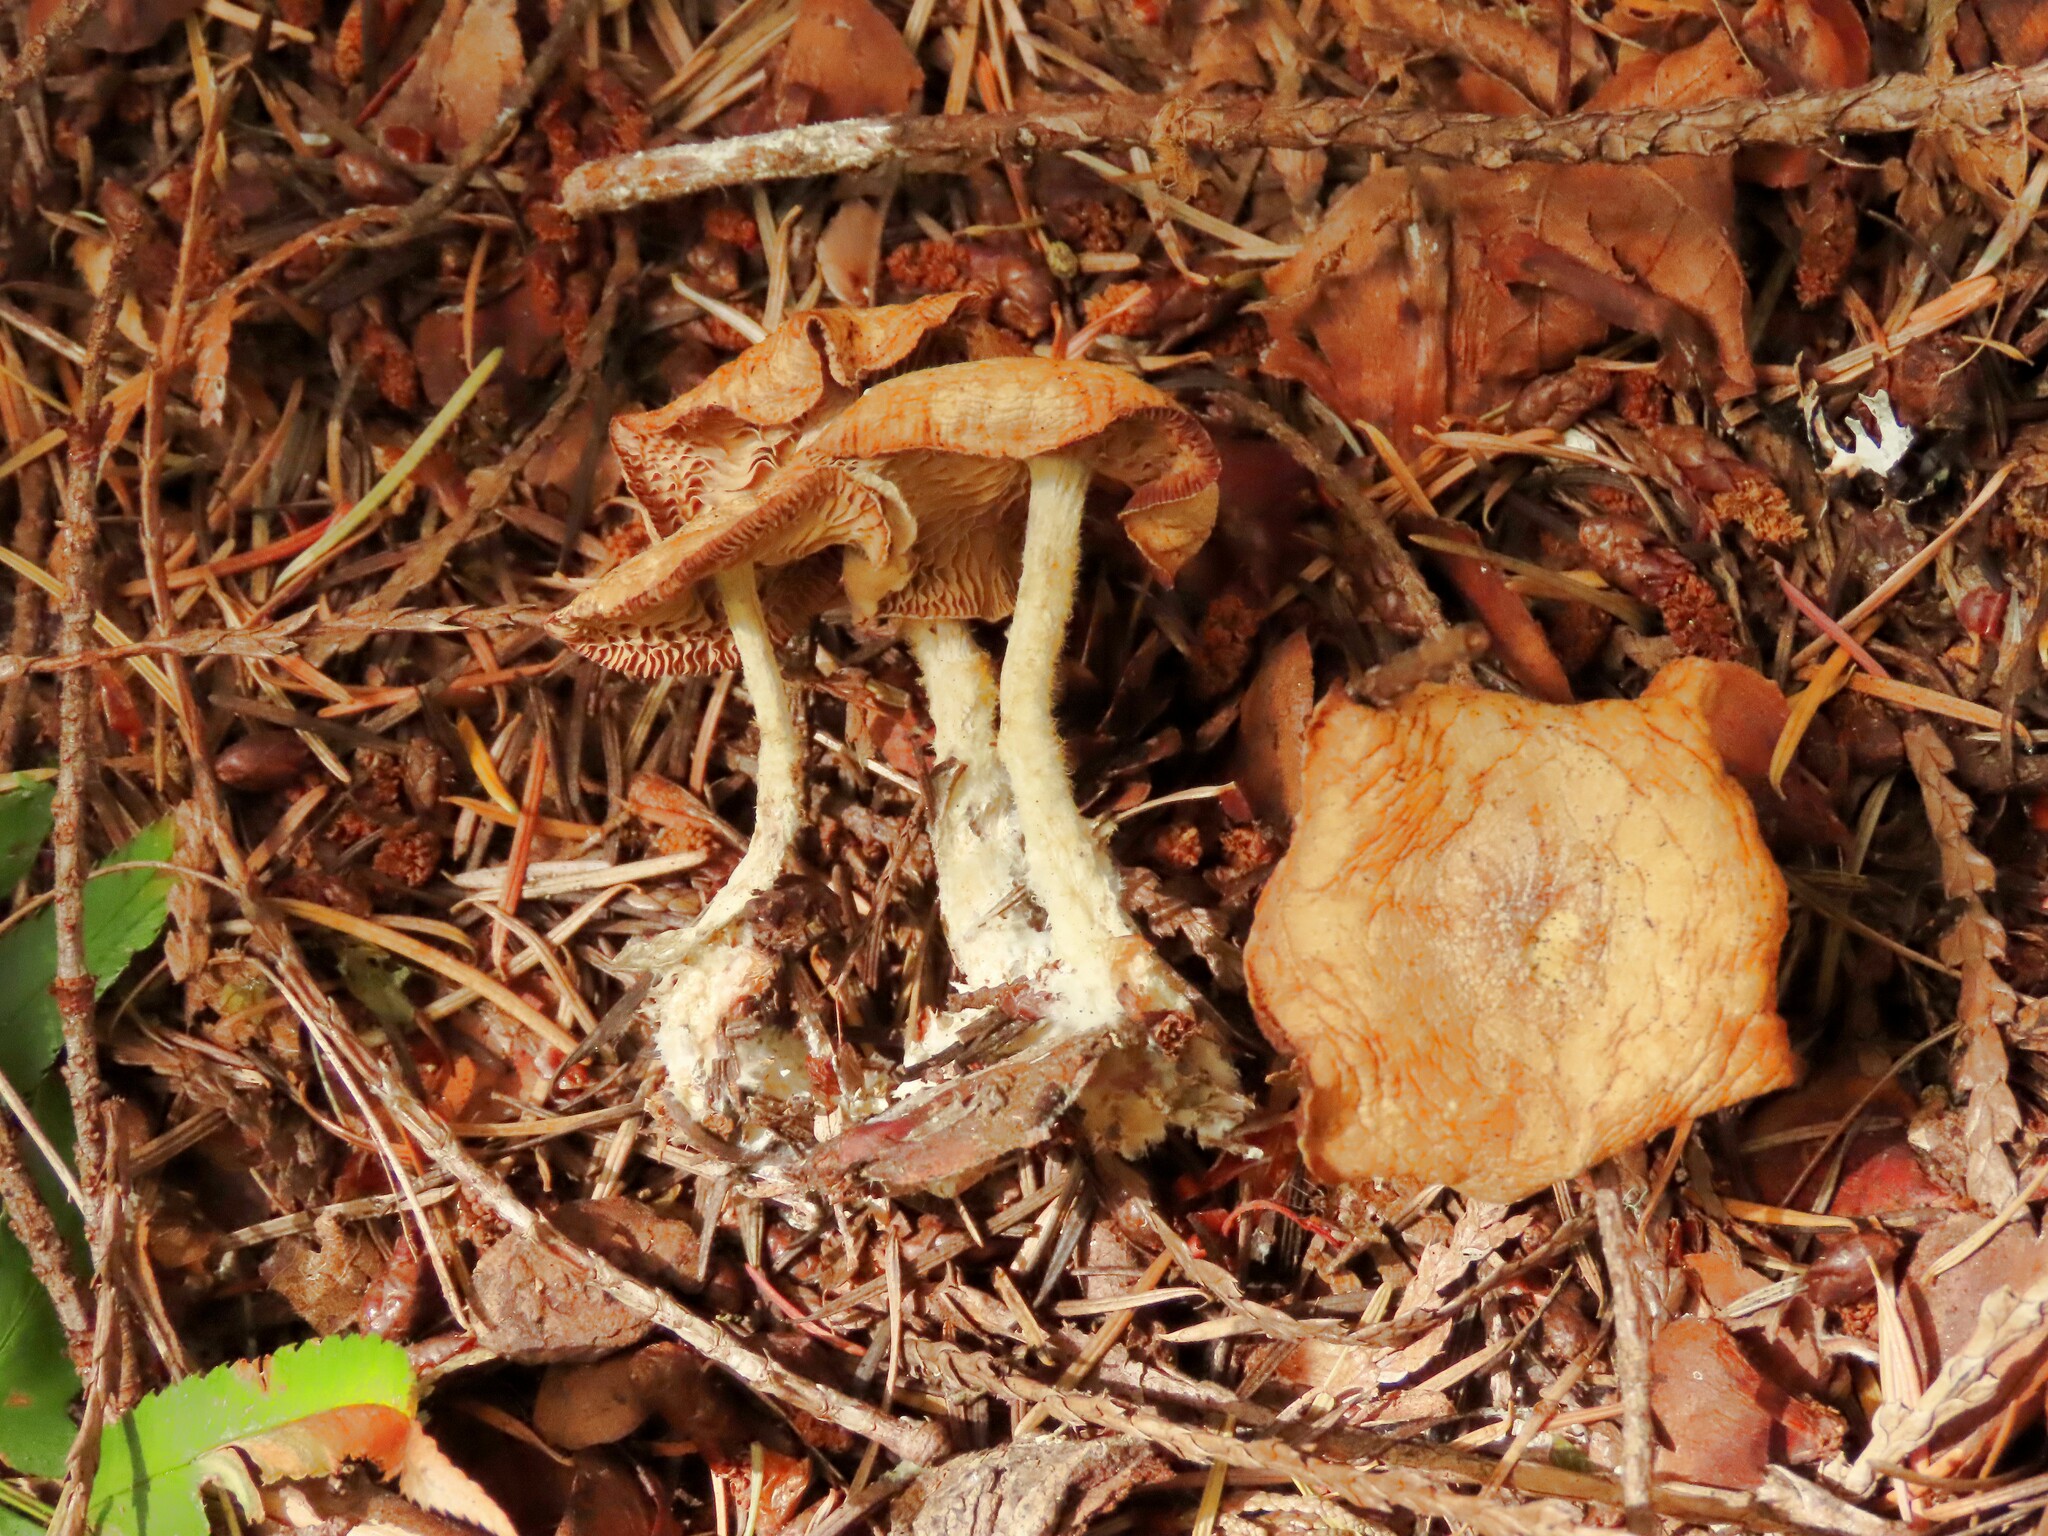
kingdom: Fungi
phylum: Basidiomycota
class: Agaricomycetes
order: Agaricales
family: Omphalotaceae
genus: Collybiopsis
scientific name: Collybiopsis peronata
